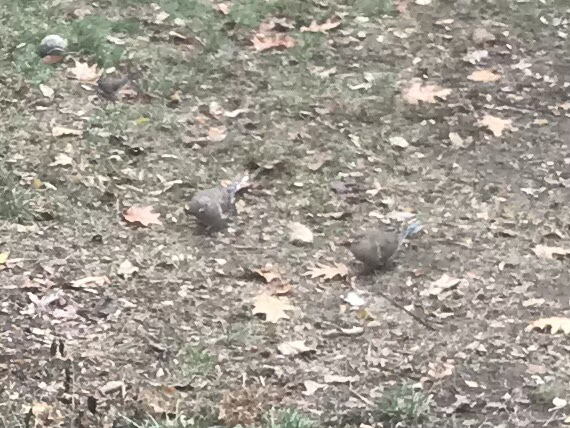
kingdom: Animalia
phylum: Chordata
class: Aves
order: Columbiformes
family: Columbidae
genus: Zenaida
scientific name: Zenaida macroura
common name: Mourning dove
